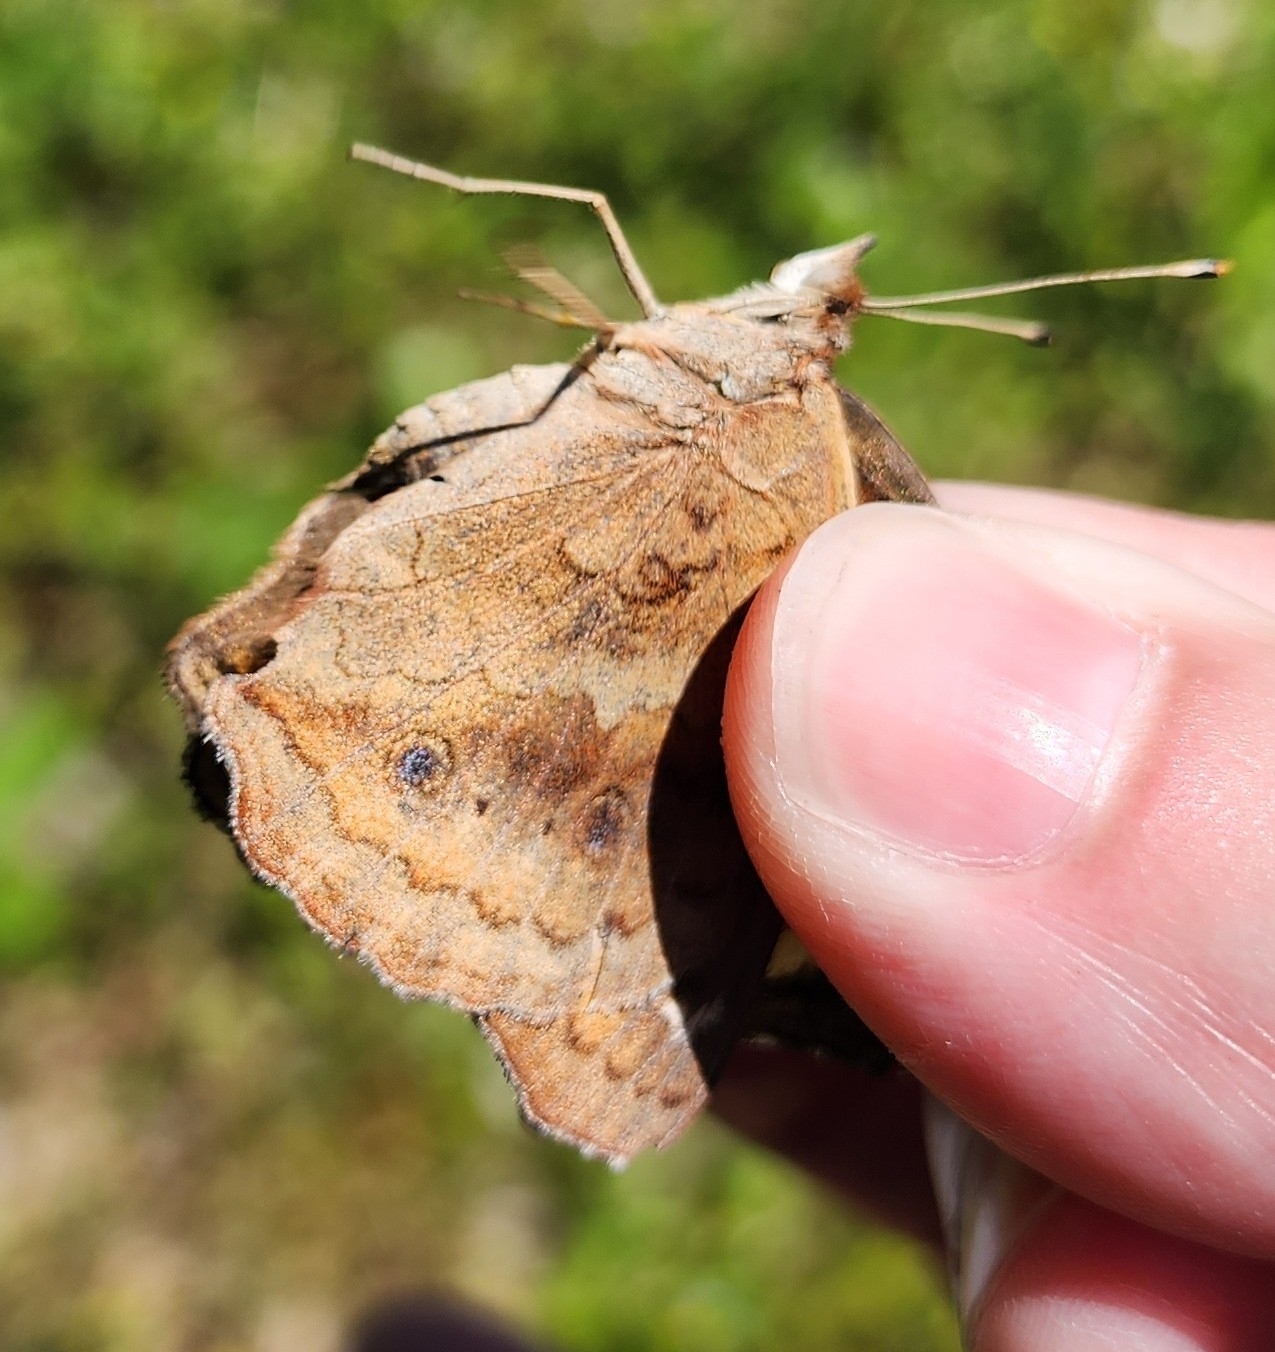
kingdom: Animalia
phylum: Arthropoda
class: Insecta
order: Lepidoptera
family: Nymphalidae
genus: Junonia
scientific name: Junonia coenia
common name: Common buckeye
